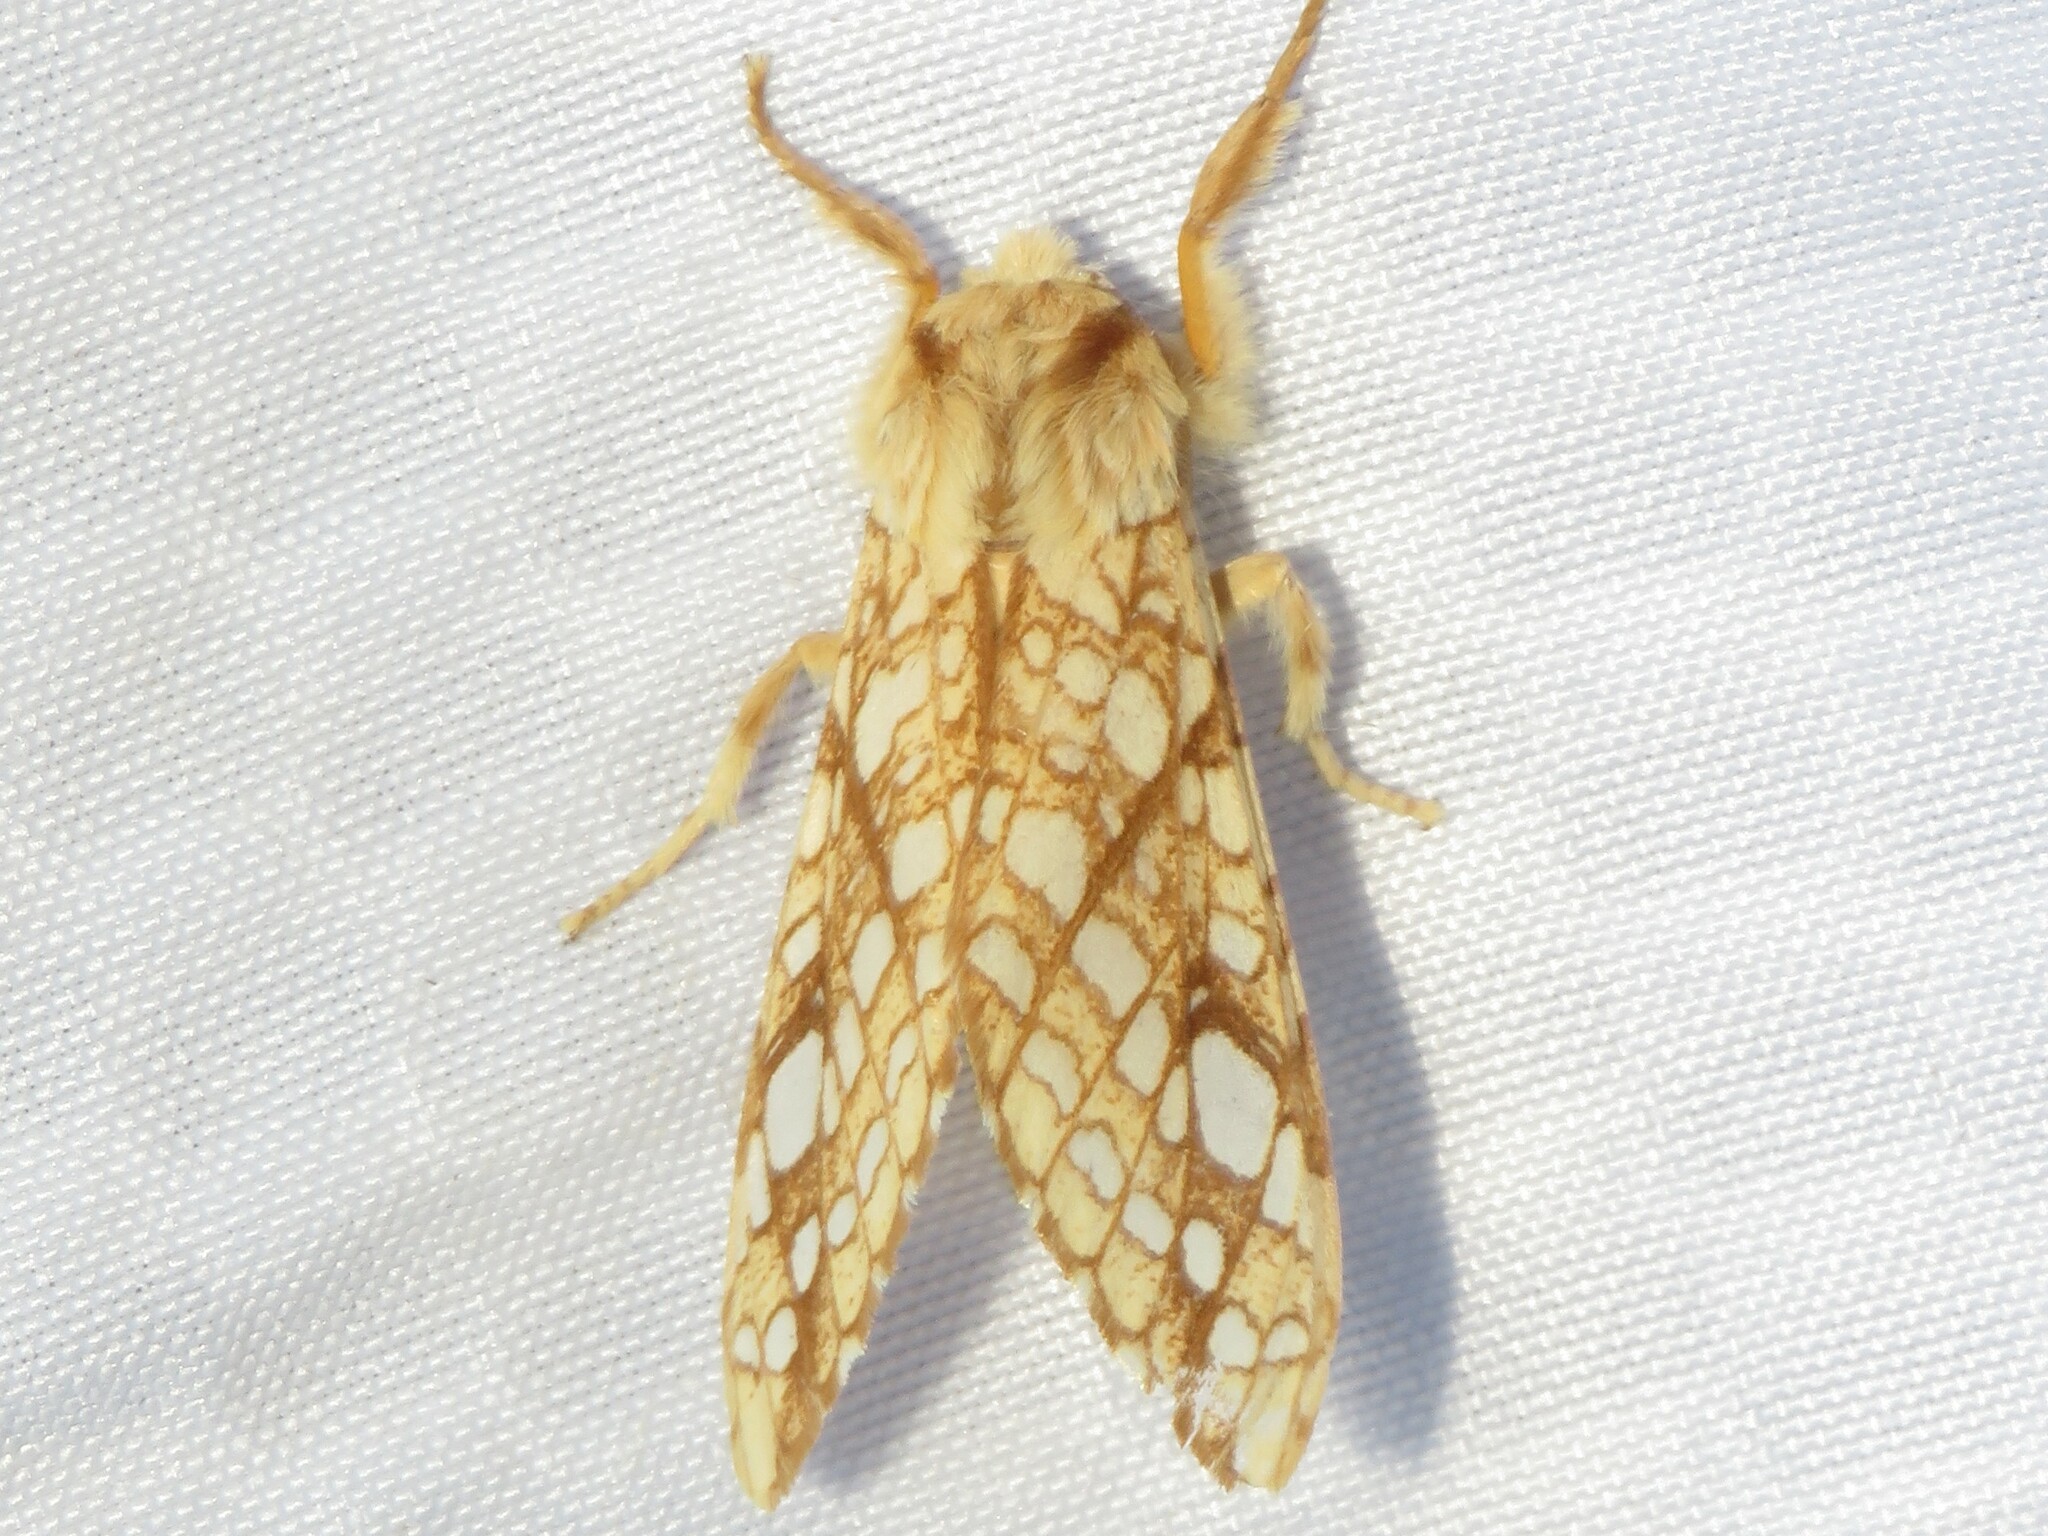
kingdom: Animalia
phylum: Arthropoda
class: Insecta
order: Lepidoptera
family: Erebidae
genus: Lophocampa
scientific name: Lophocampa caryae
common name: Hickory tussock moth
